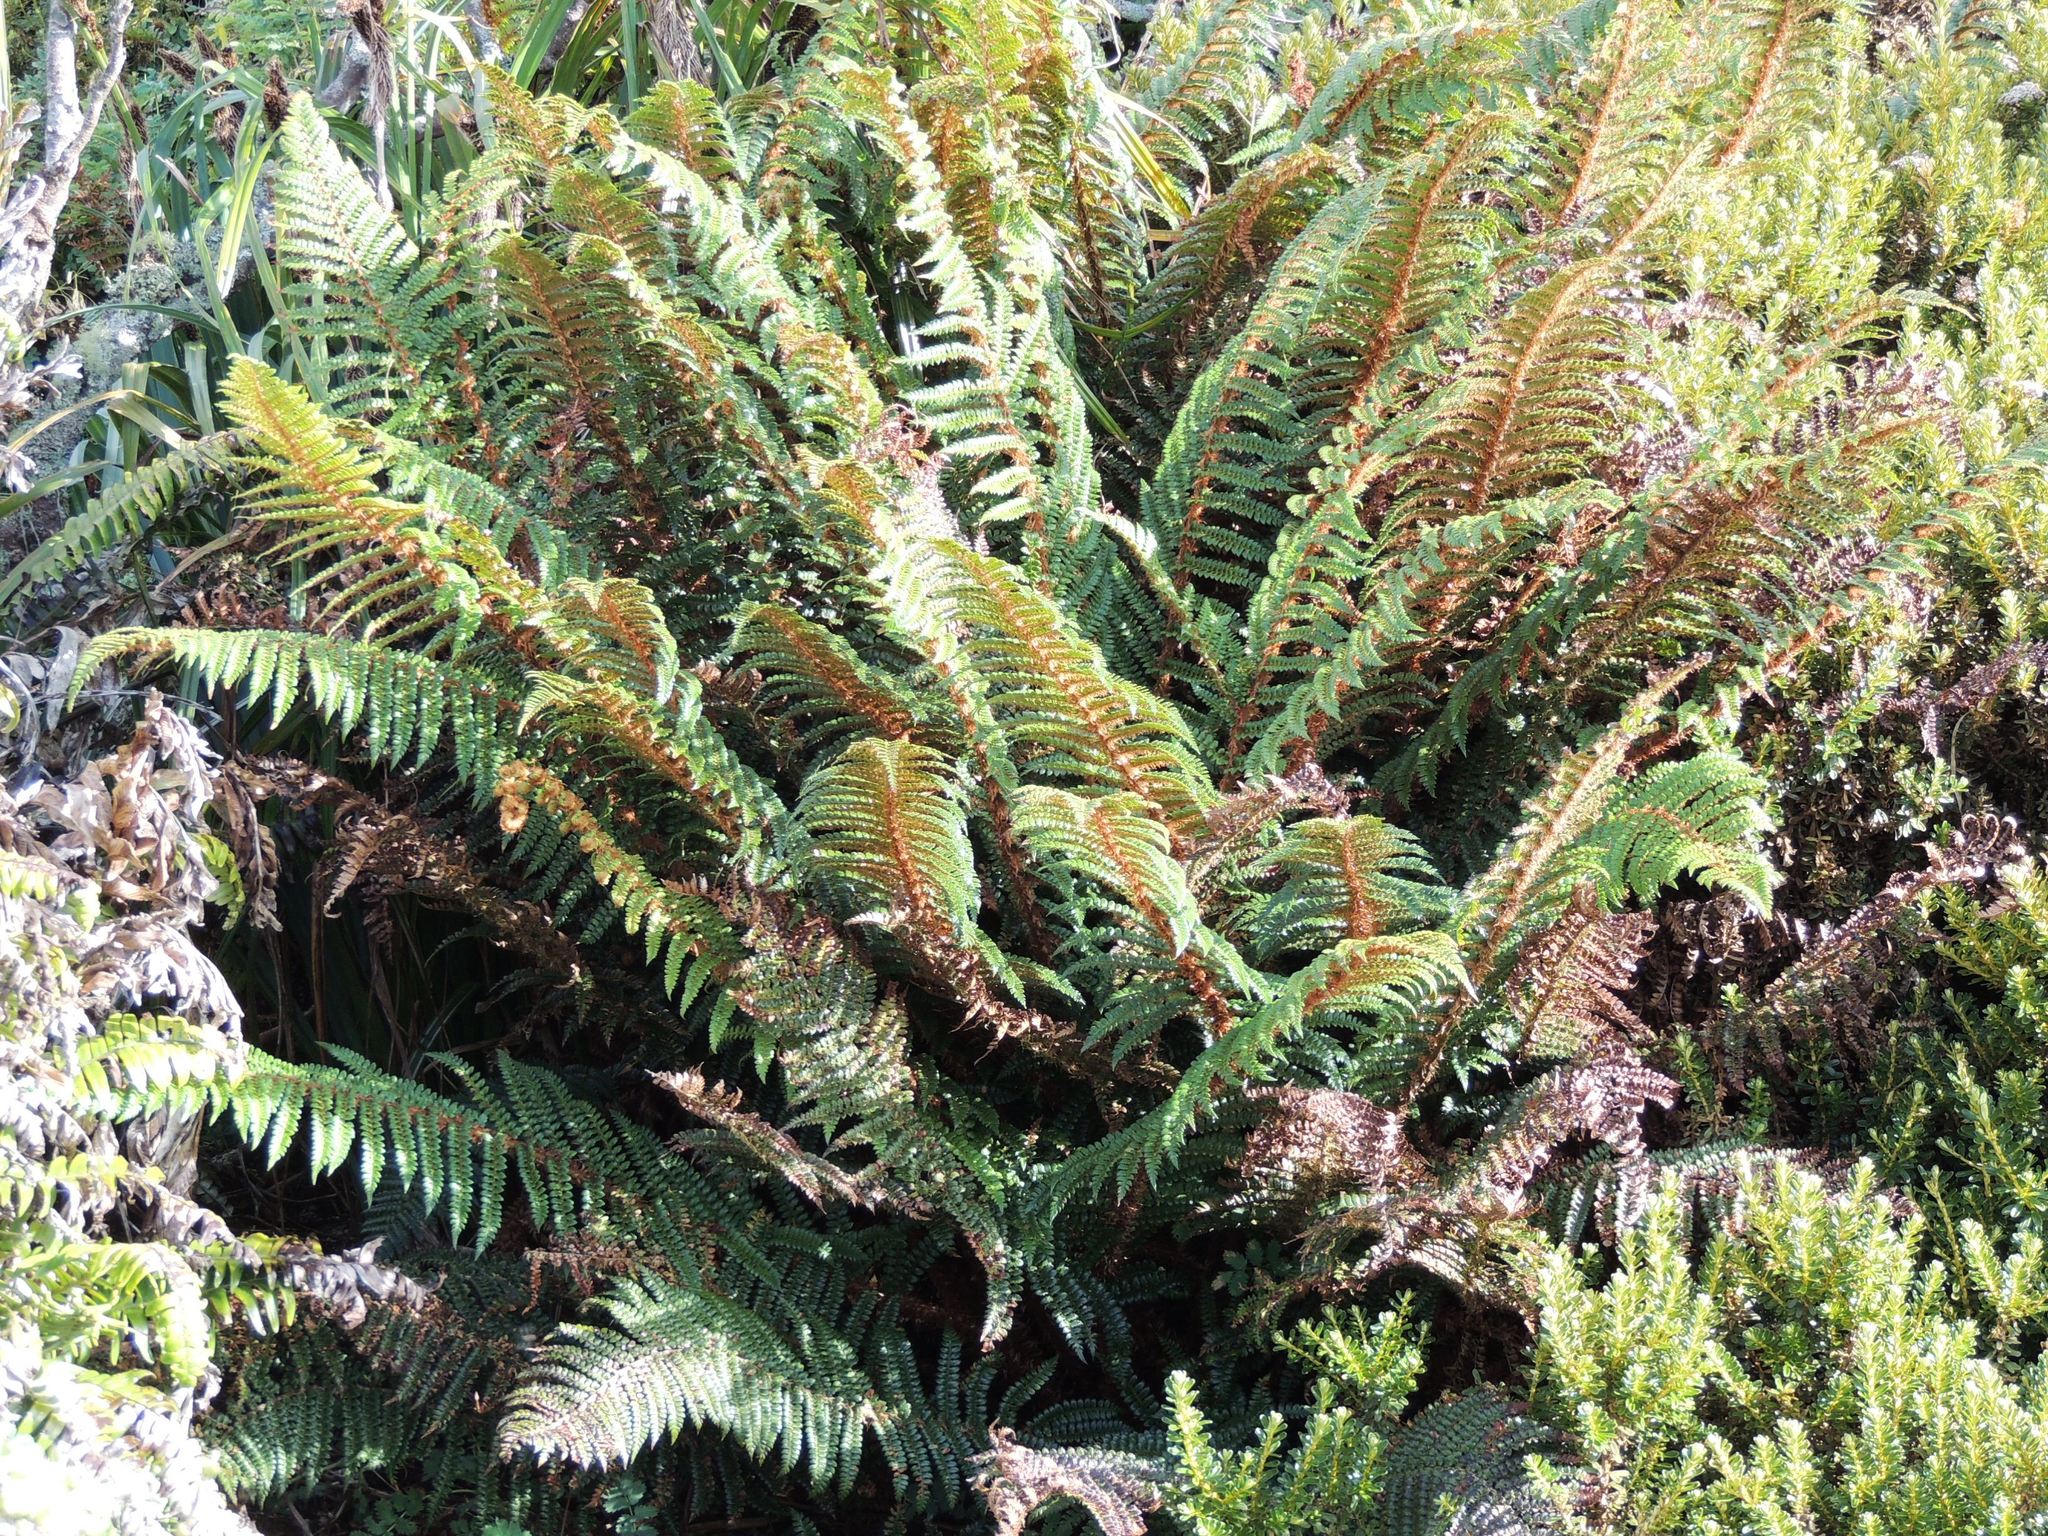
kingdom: Plantae
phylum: Tracheophyta
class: Polypodiopsida
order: Polypodiales
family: Dryopteridaceae
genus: Polystichum
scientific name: Polystichum vestitum
